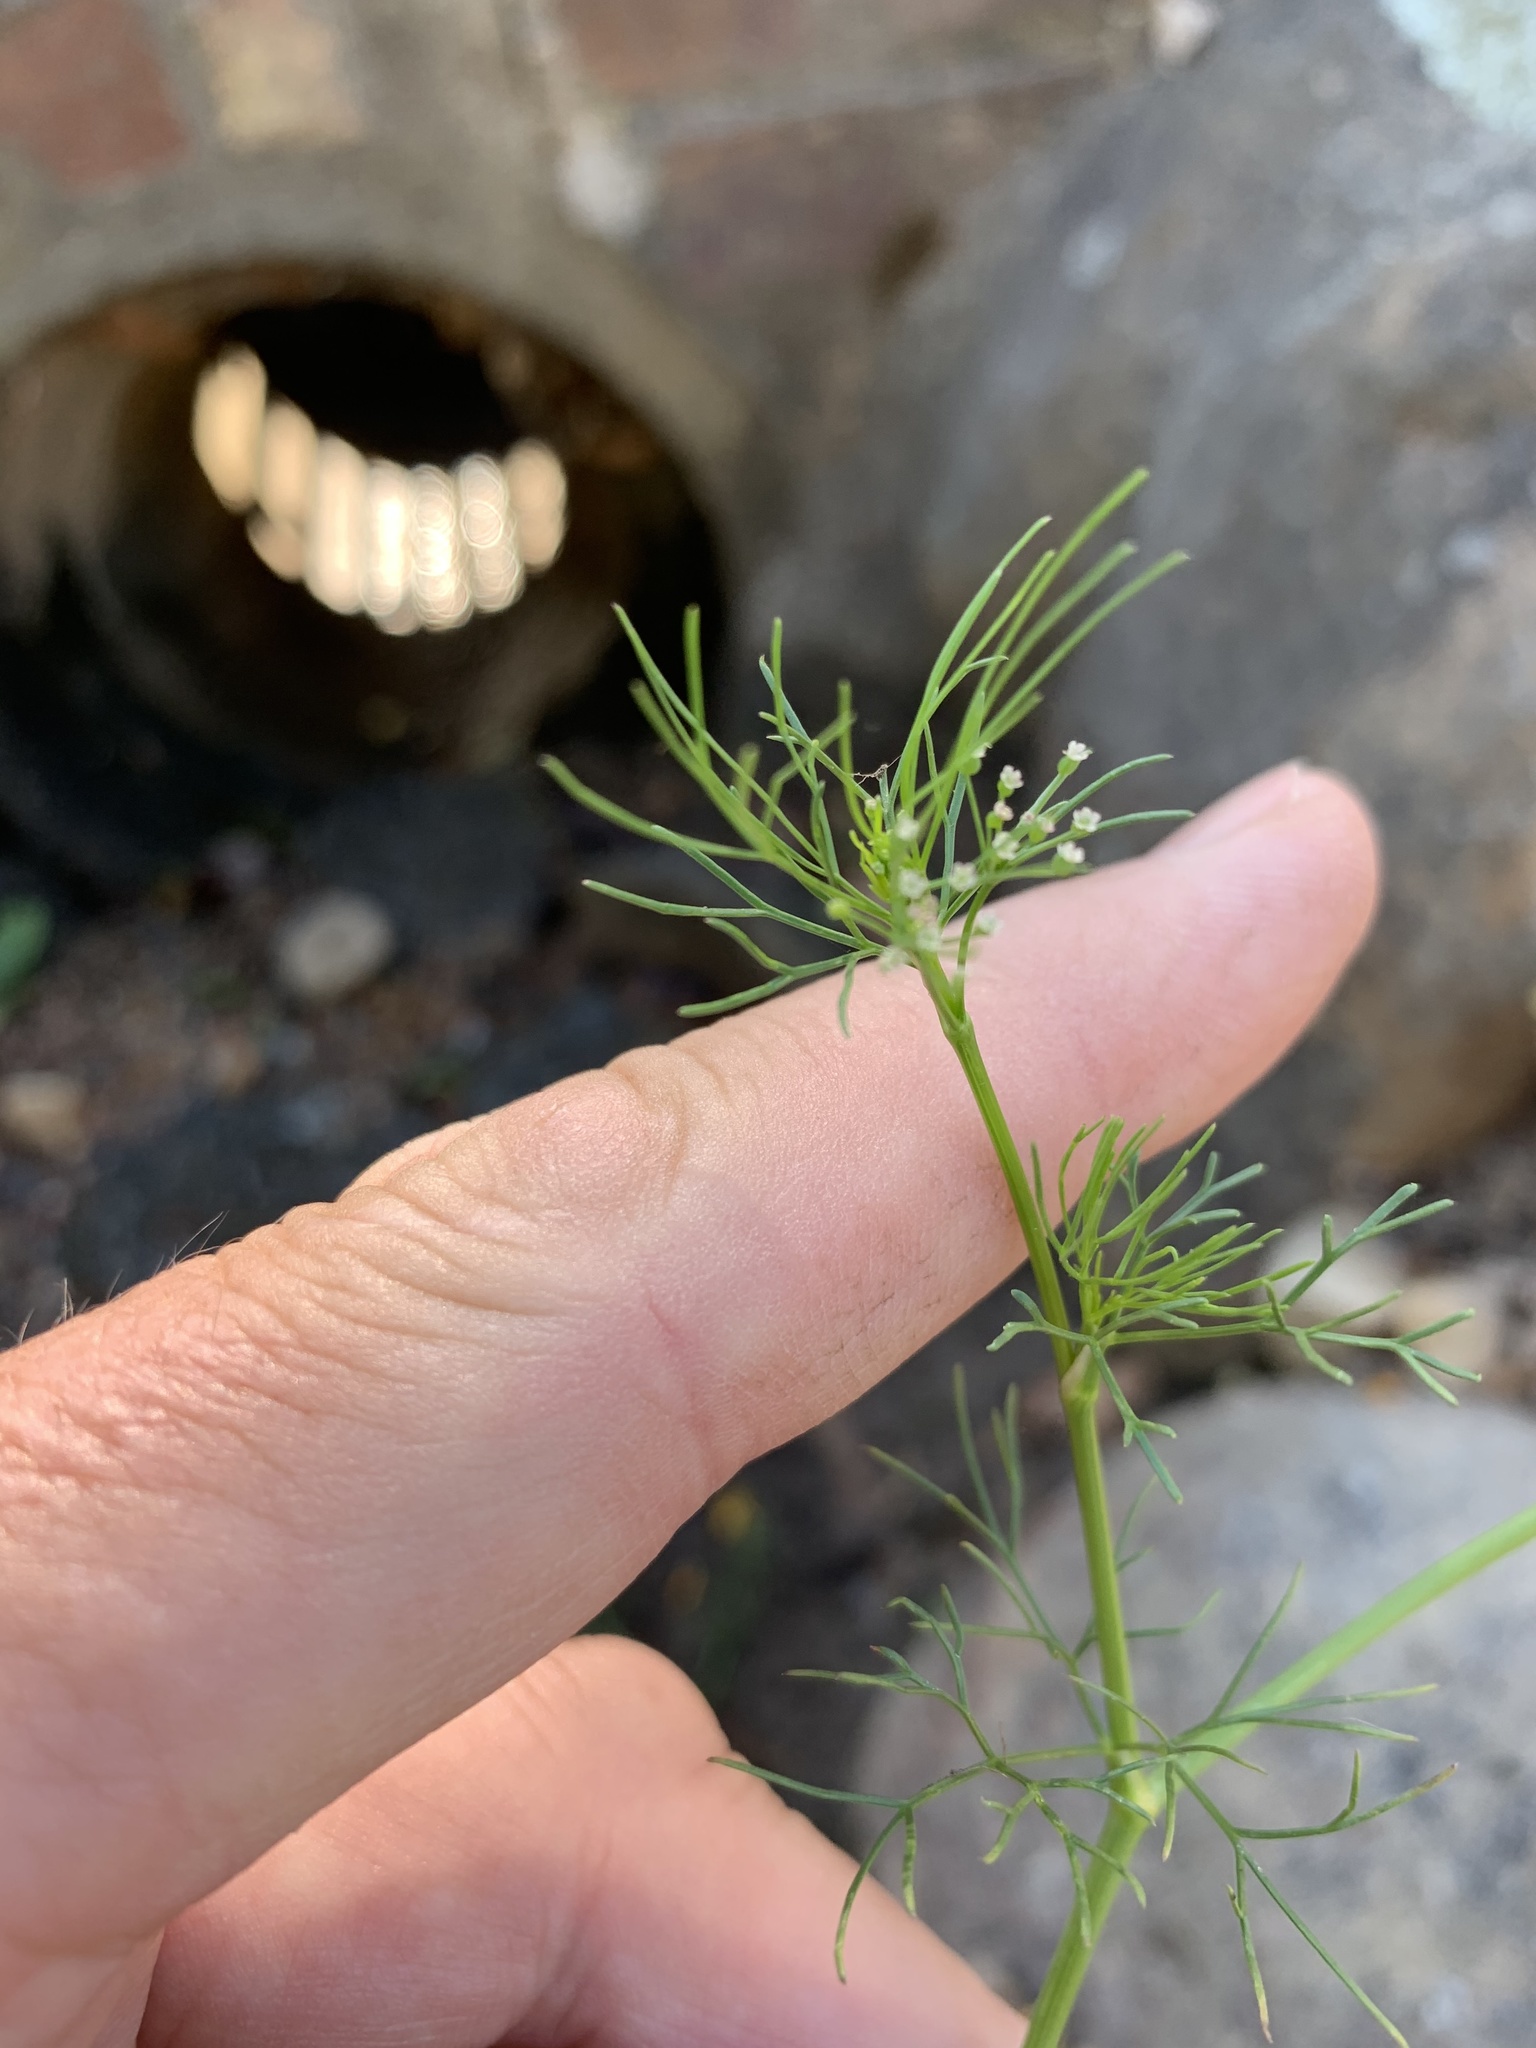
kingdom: Plantae
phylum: Tracheophyta
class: Magnoliopsida
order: Apiales
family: Apiaceae
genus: Cyclospermum
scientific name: Cyclospermum leptophyllum
